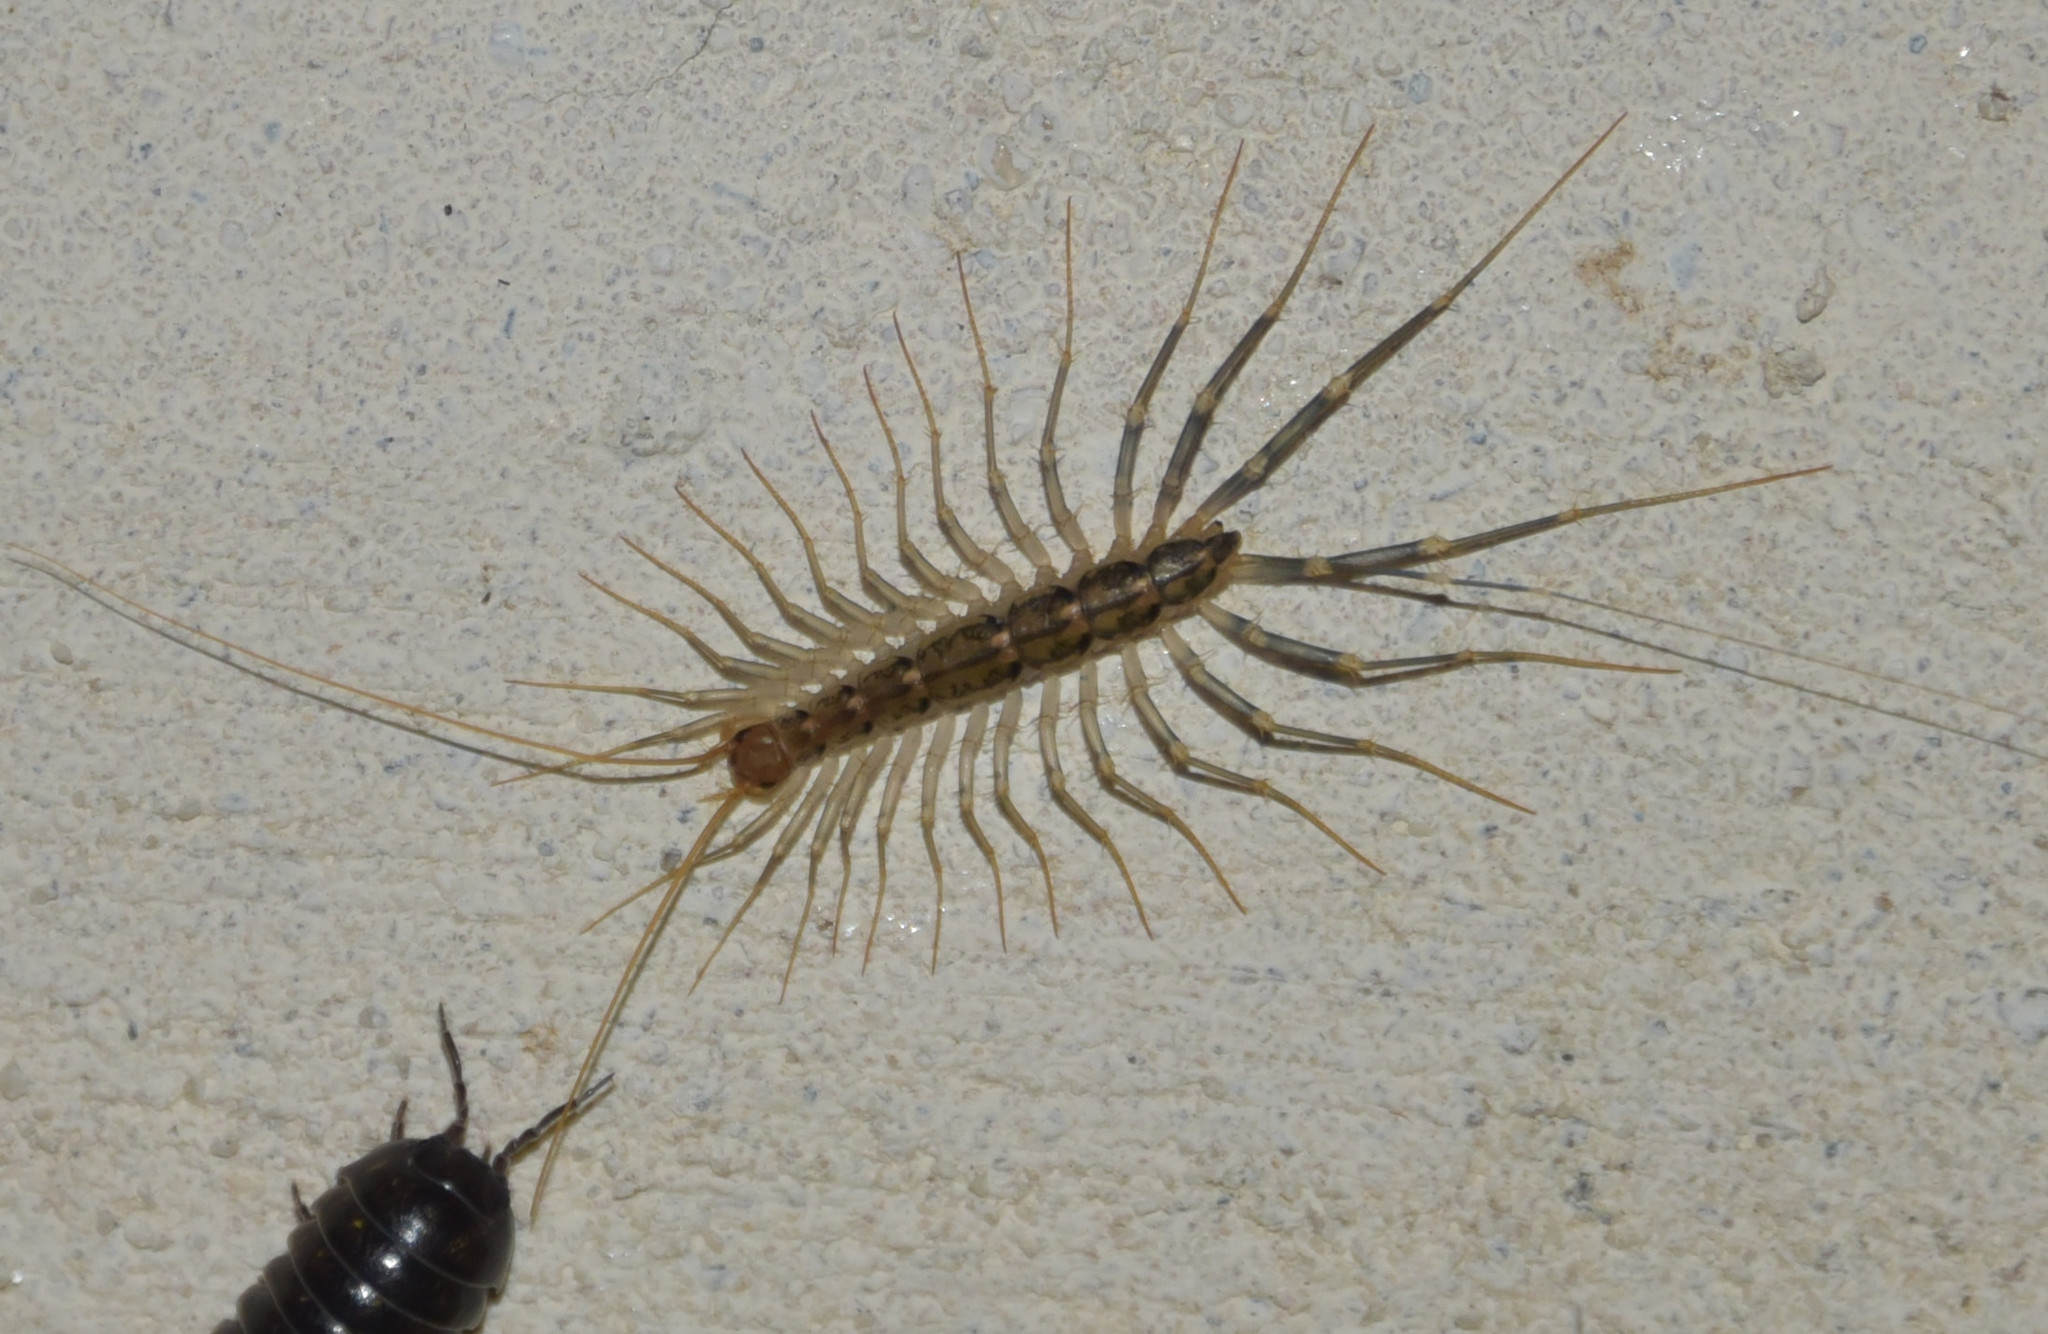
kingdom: Animalia
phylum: Arthropoda
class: Chilopoda
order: Scutigeromorpha
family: Scutigeridae
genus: Scutigera
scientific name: Scutigera coleoptrata
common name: House centipede
